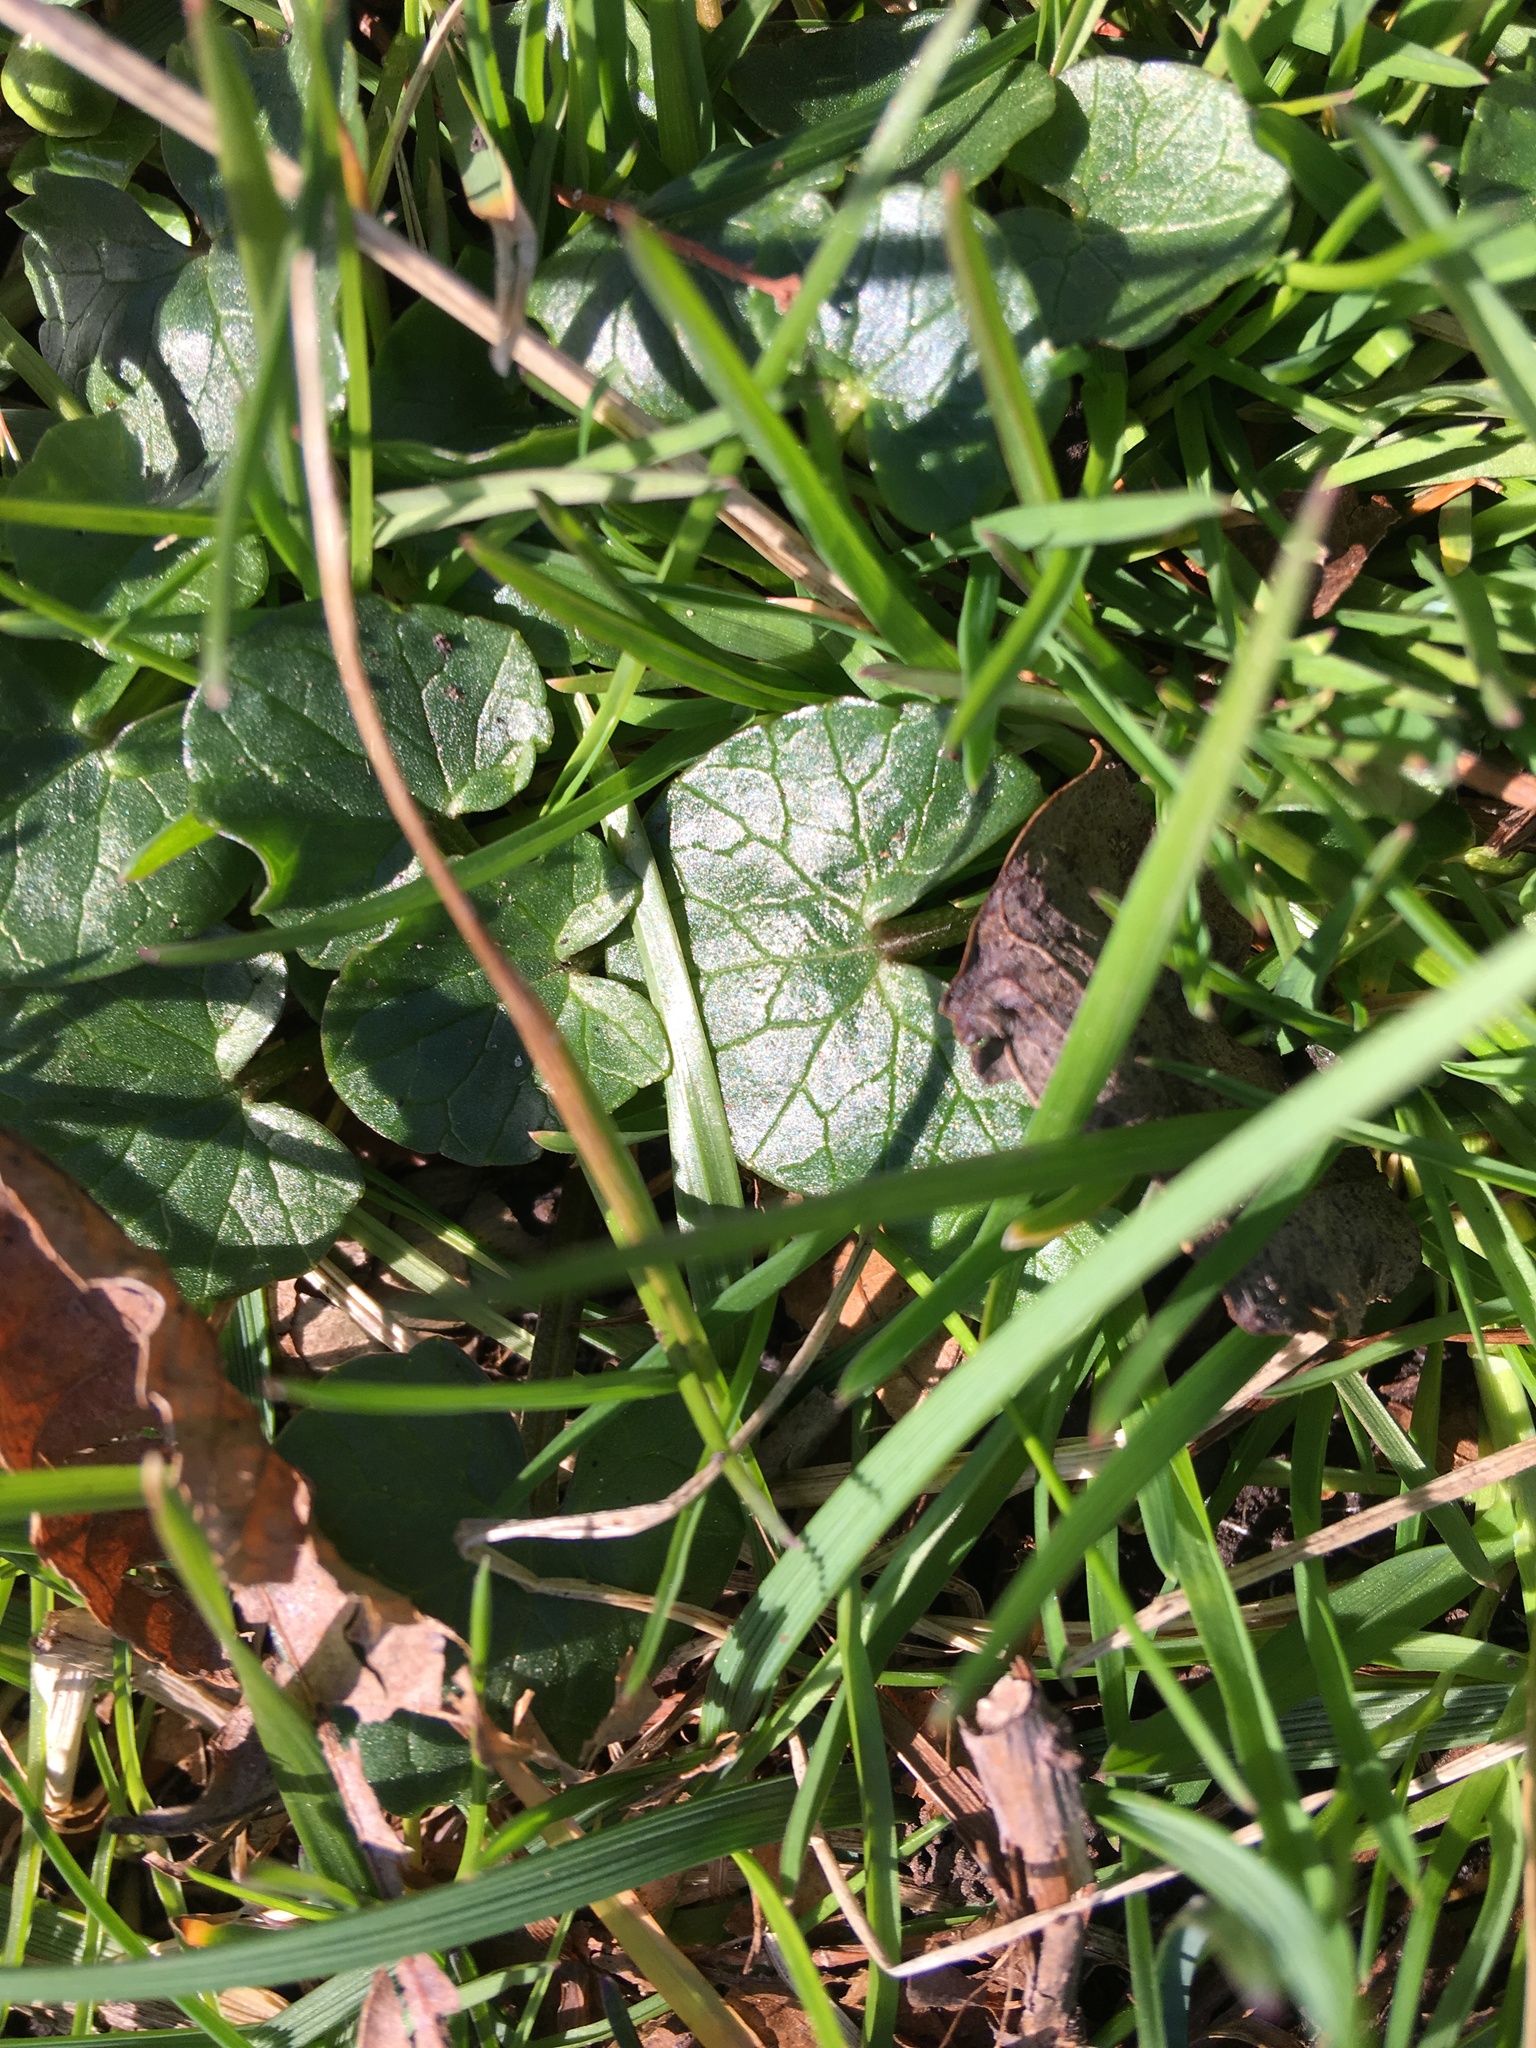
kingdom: Plantae
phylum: Tracheophyta
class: Magnoliopsida
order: Ranunculales
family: Ranunculaceae
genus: Ficaria
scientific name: Ficaria verna
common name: Lesser celandine
